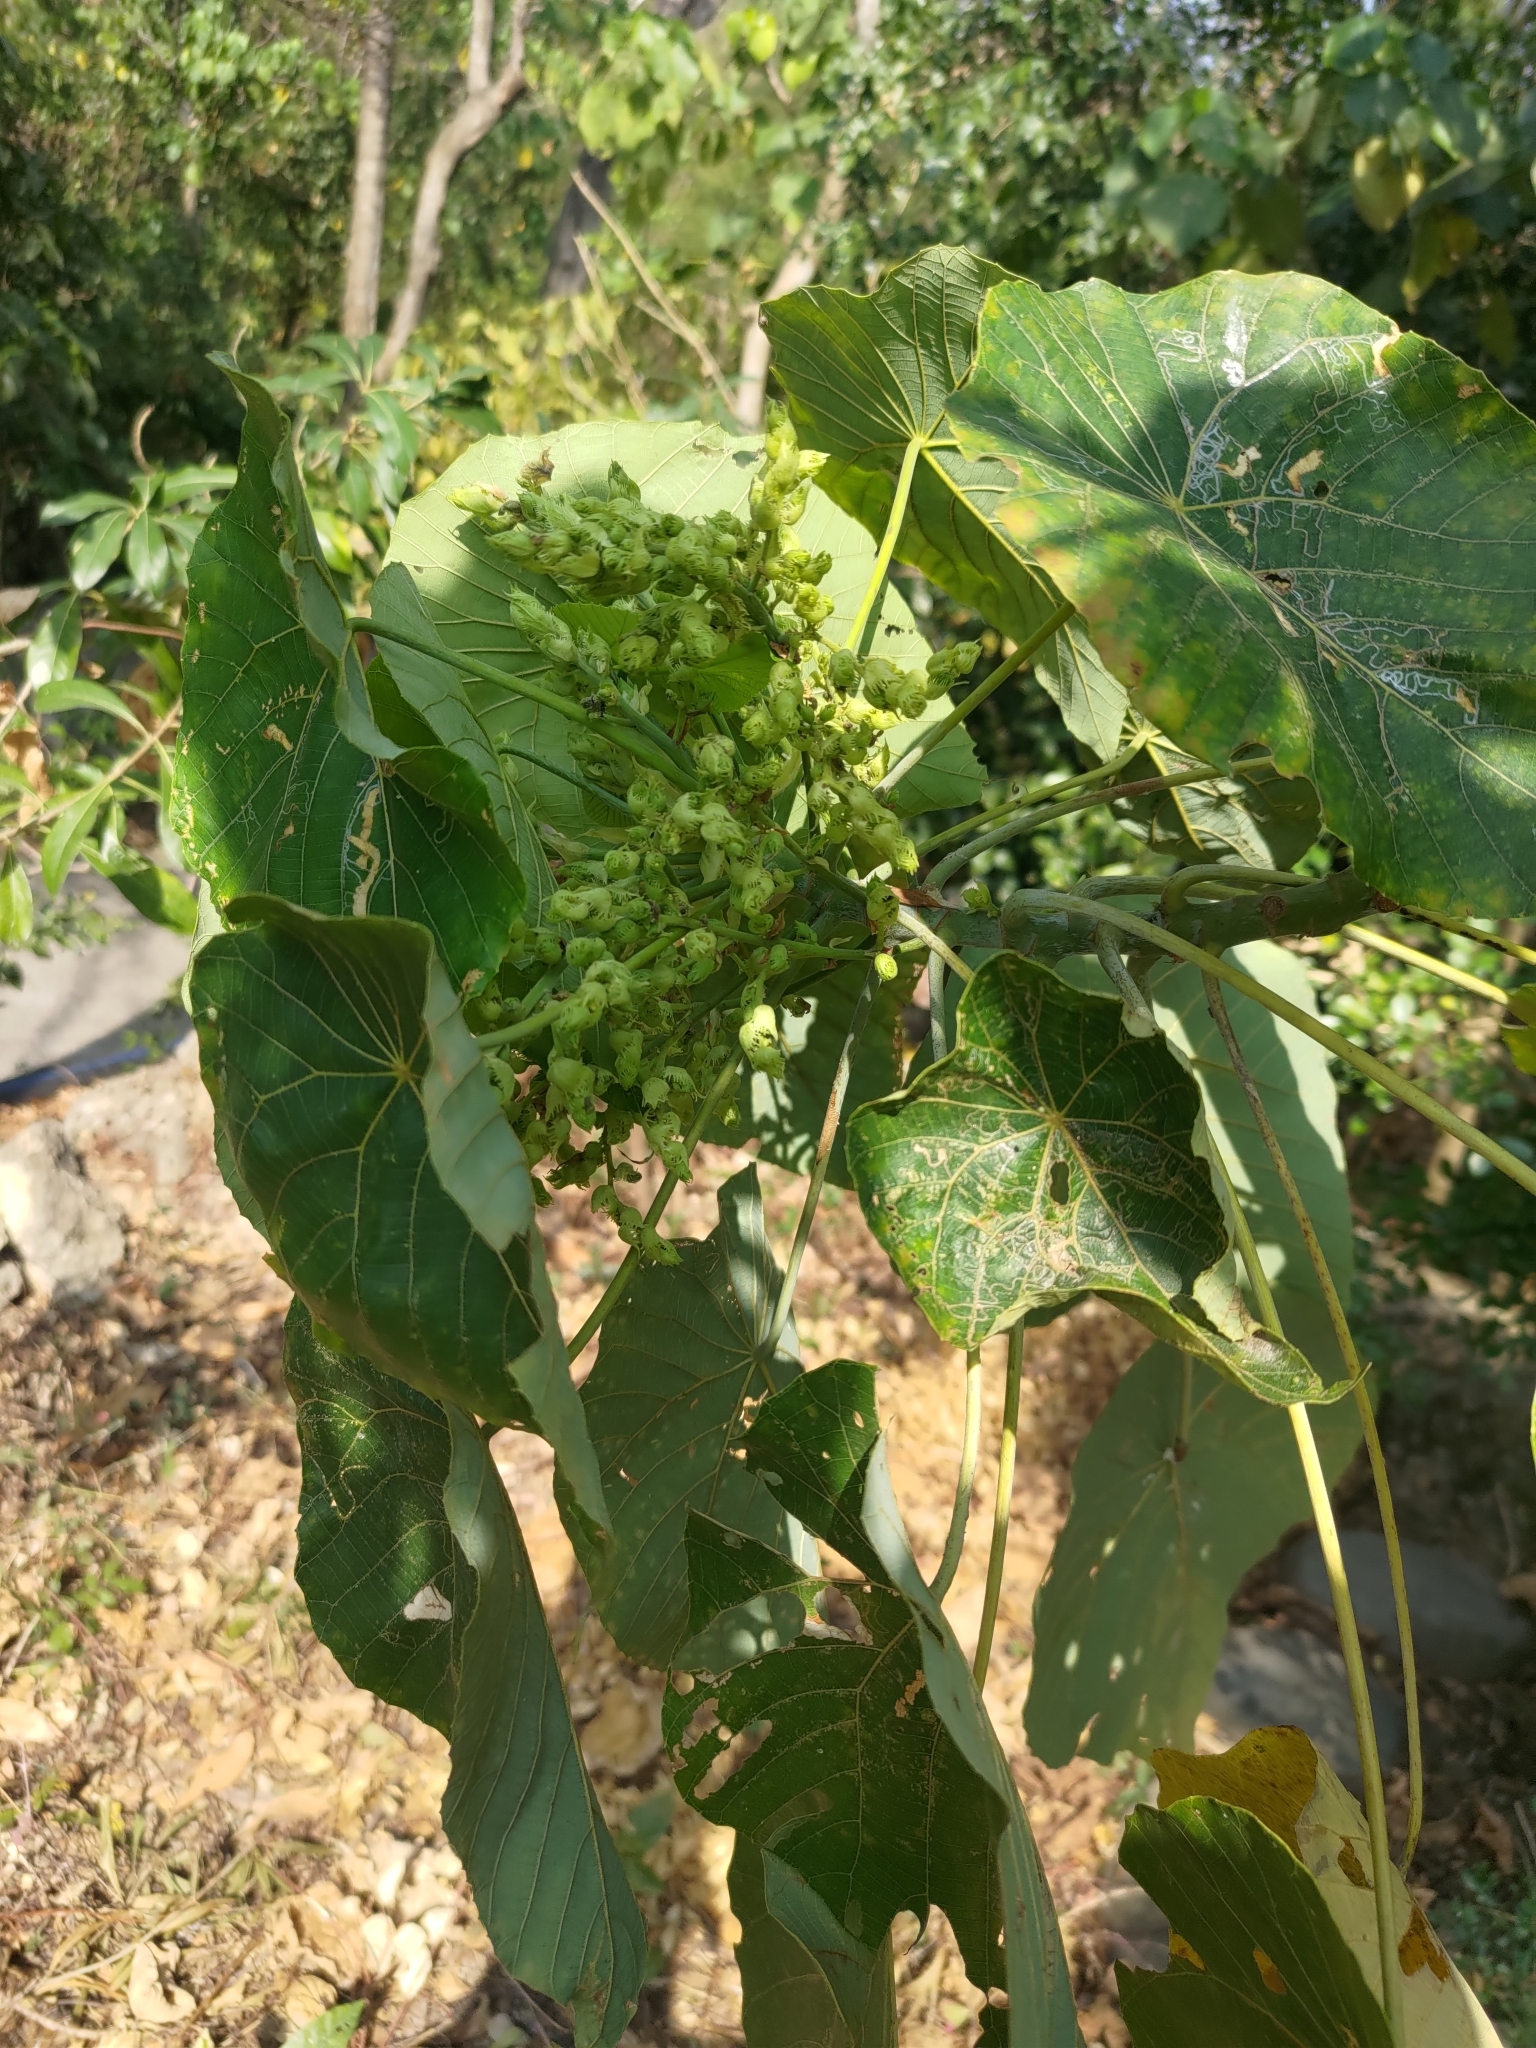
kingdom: Plantae
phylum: Tracheophyta
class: Magnoliopsida
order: Malpighiales
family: Euphorbiaceae
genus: Macaranga
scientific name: Macaranga tanarius
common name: Parasol leaf tree
